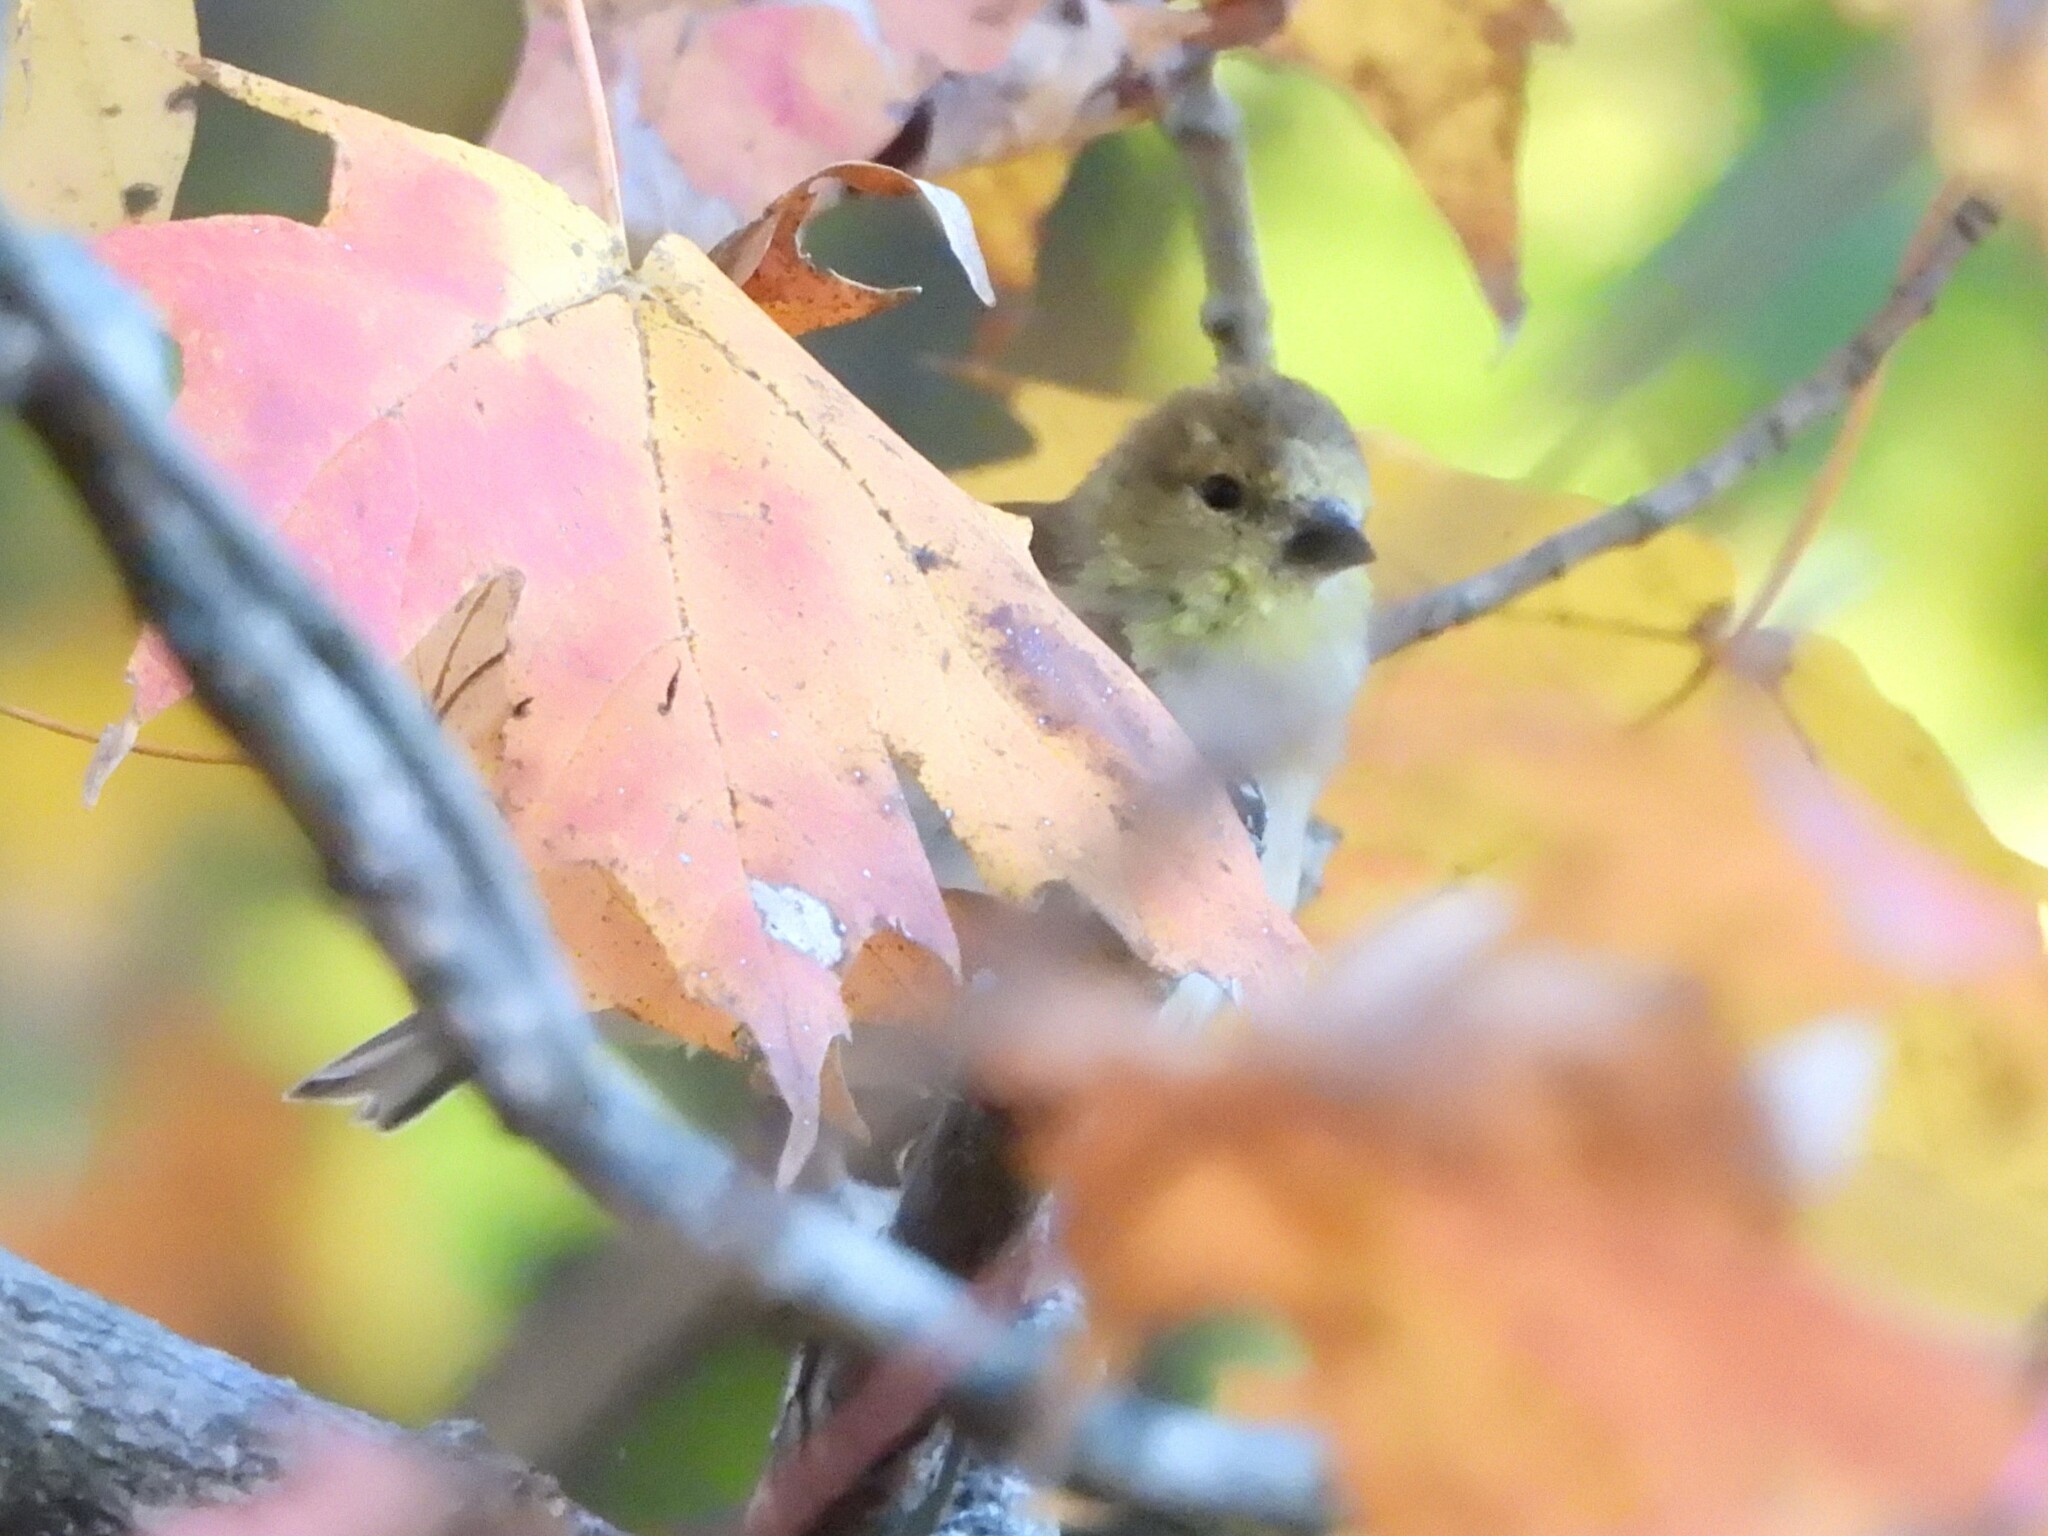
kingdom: Animalia
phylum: Chordata
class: Aves
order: Passeriformes
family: Fringillidae
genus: Spinus
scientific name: Spinus tristis
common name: American goldfinch
